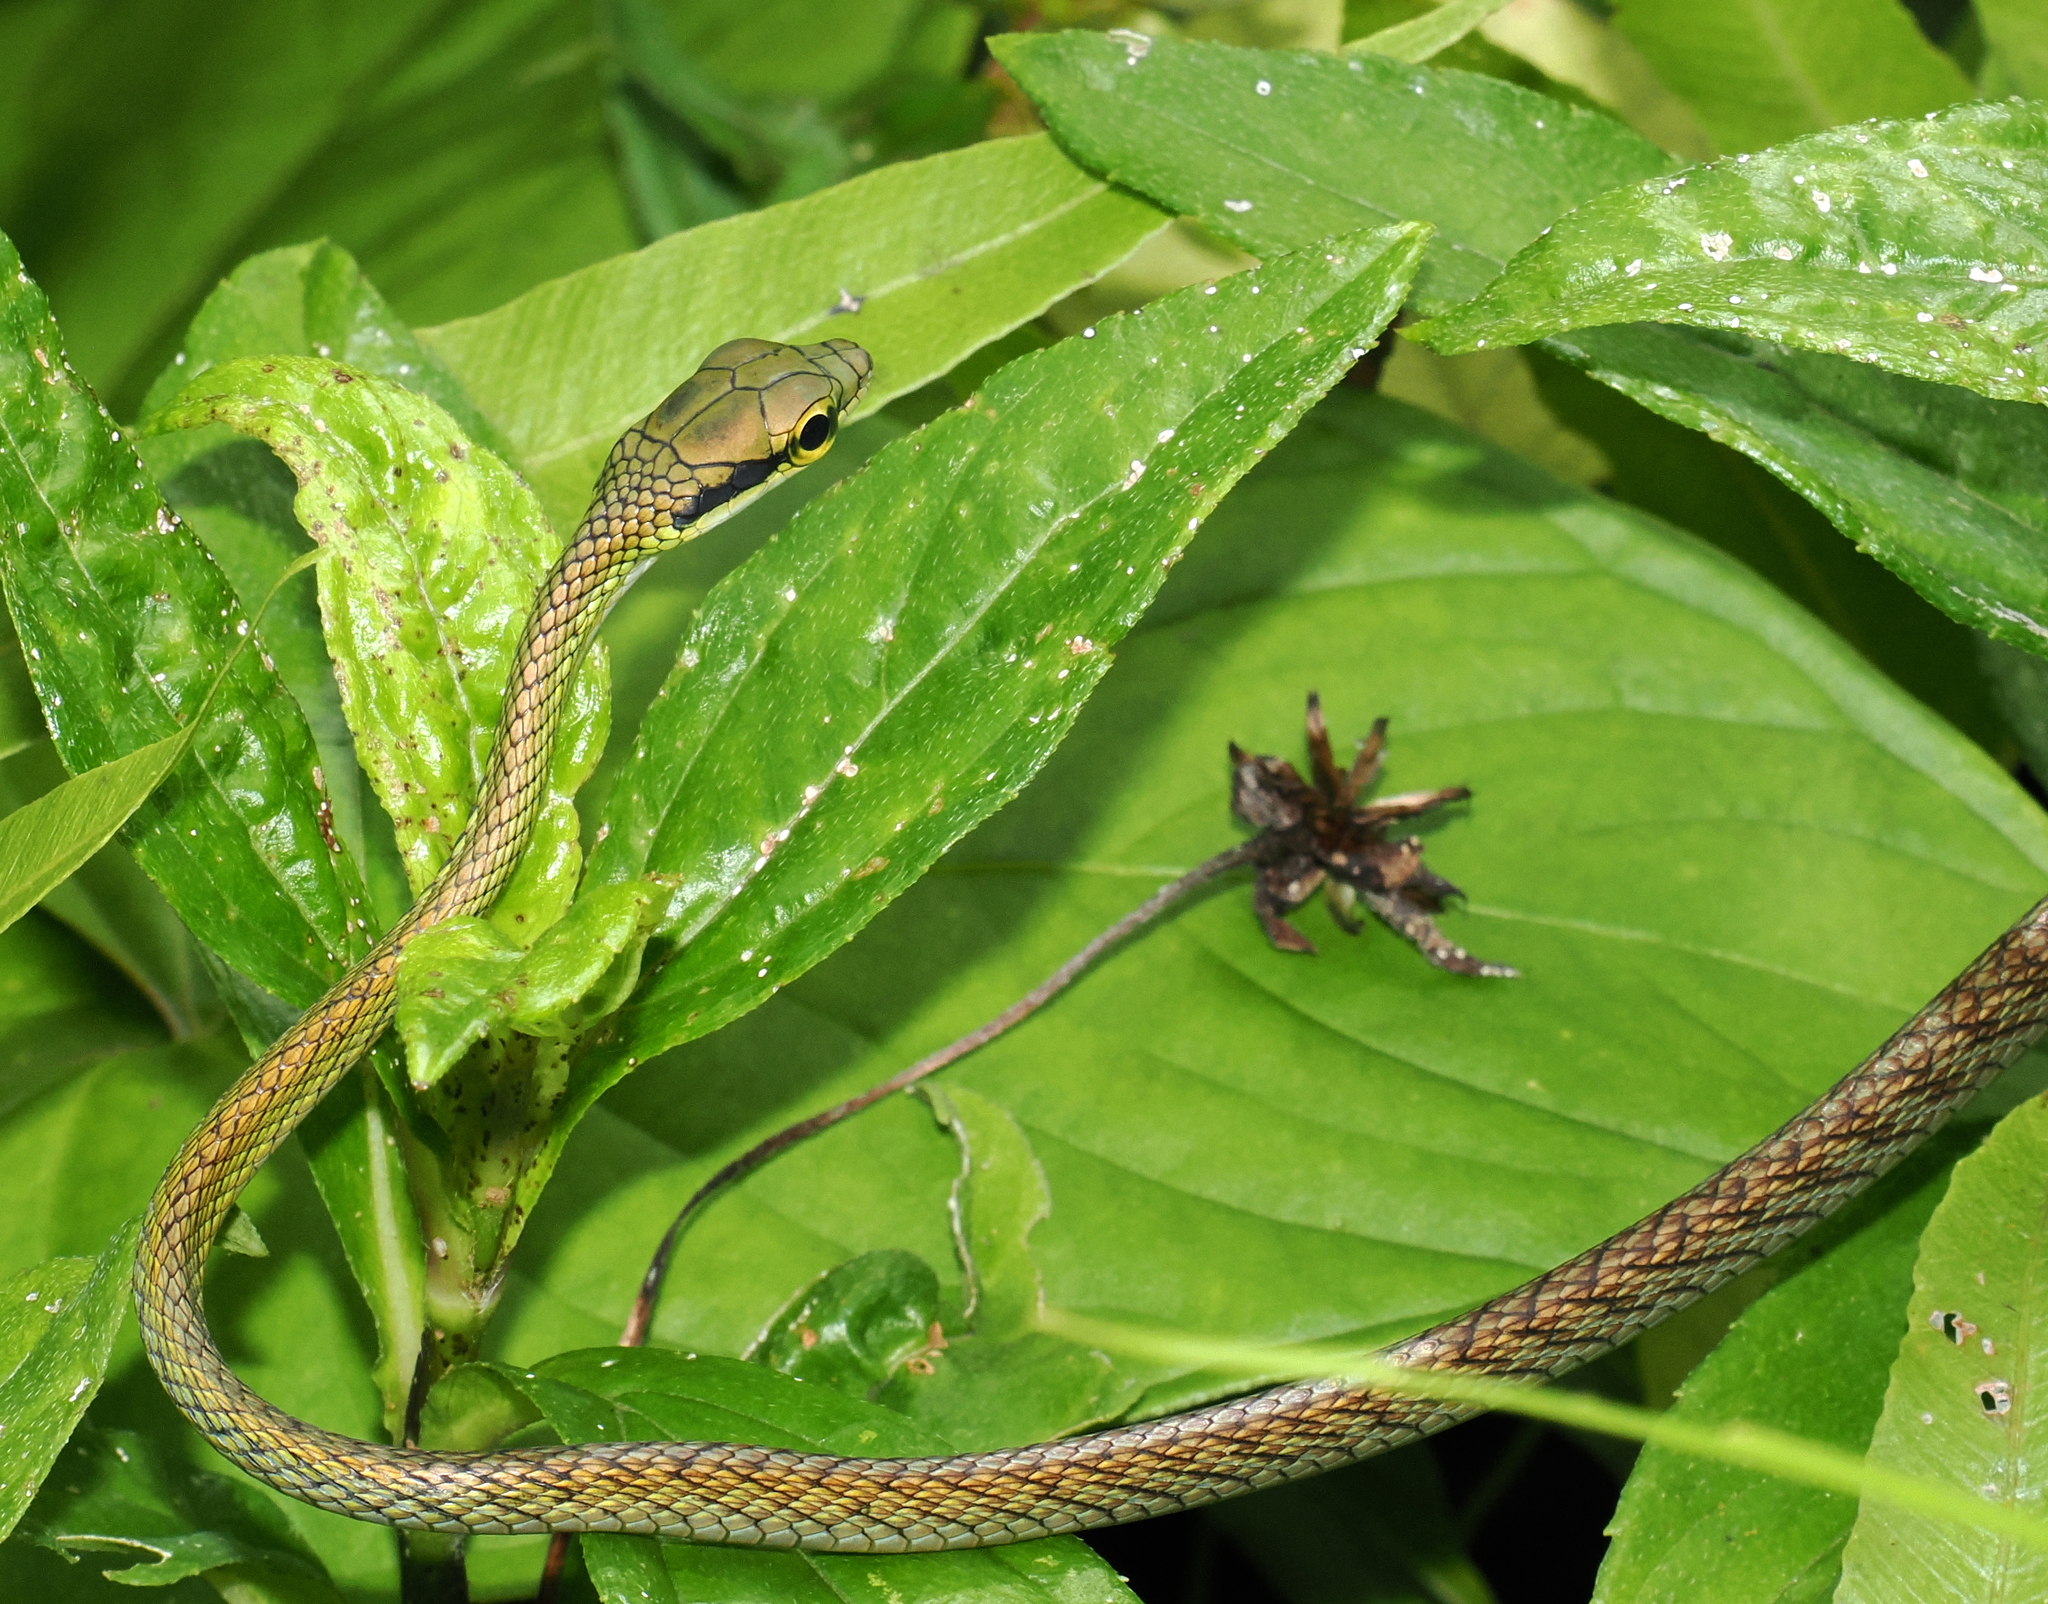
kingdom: Animalia
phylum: Chordata
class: Squamata
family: Colubridae
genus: Leptophis
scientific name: Leptophis ahaetulla
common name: Parrot snake
